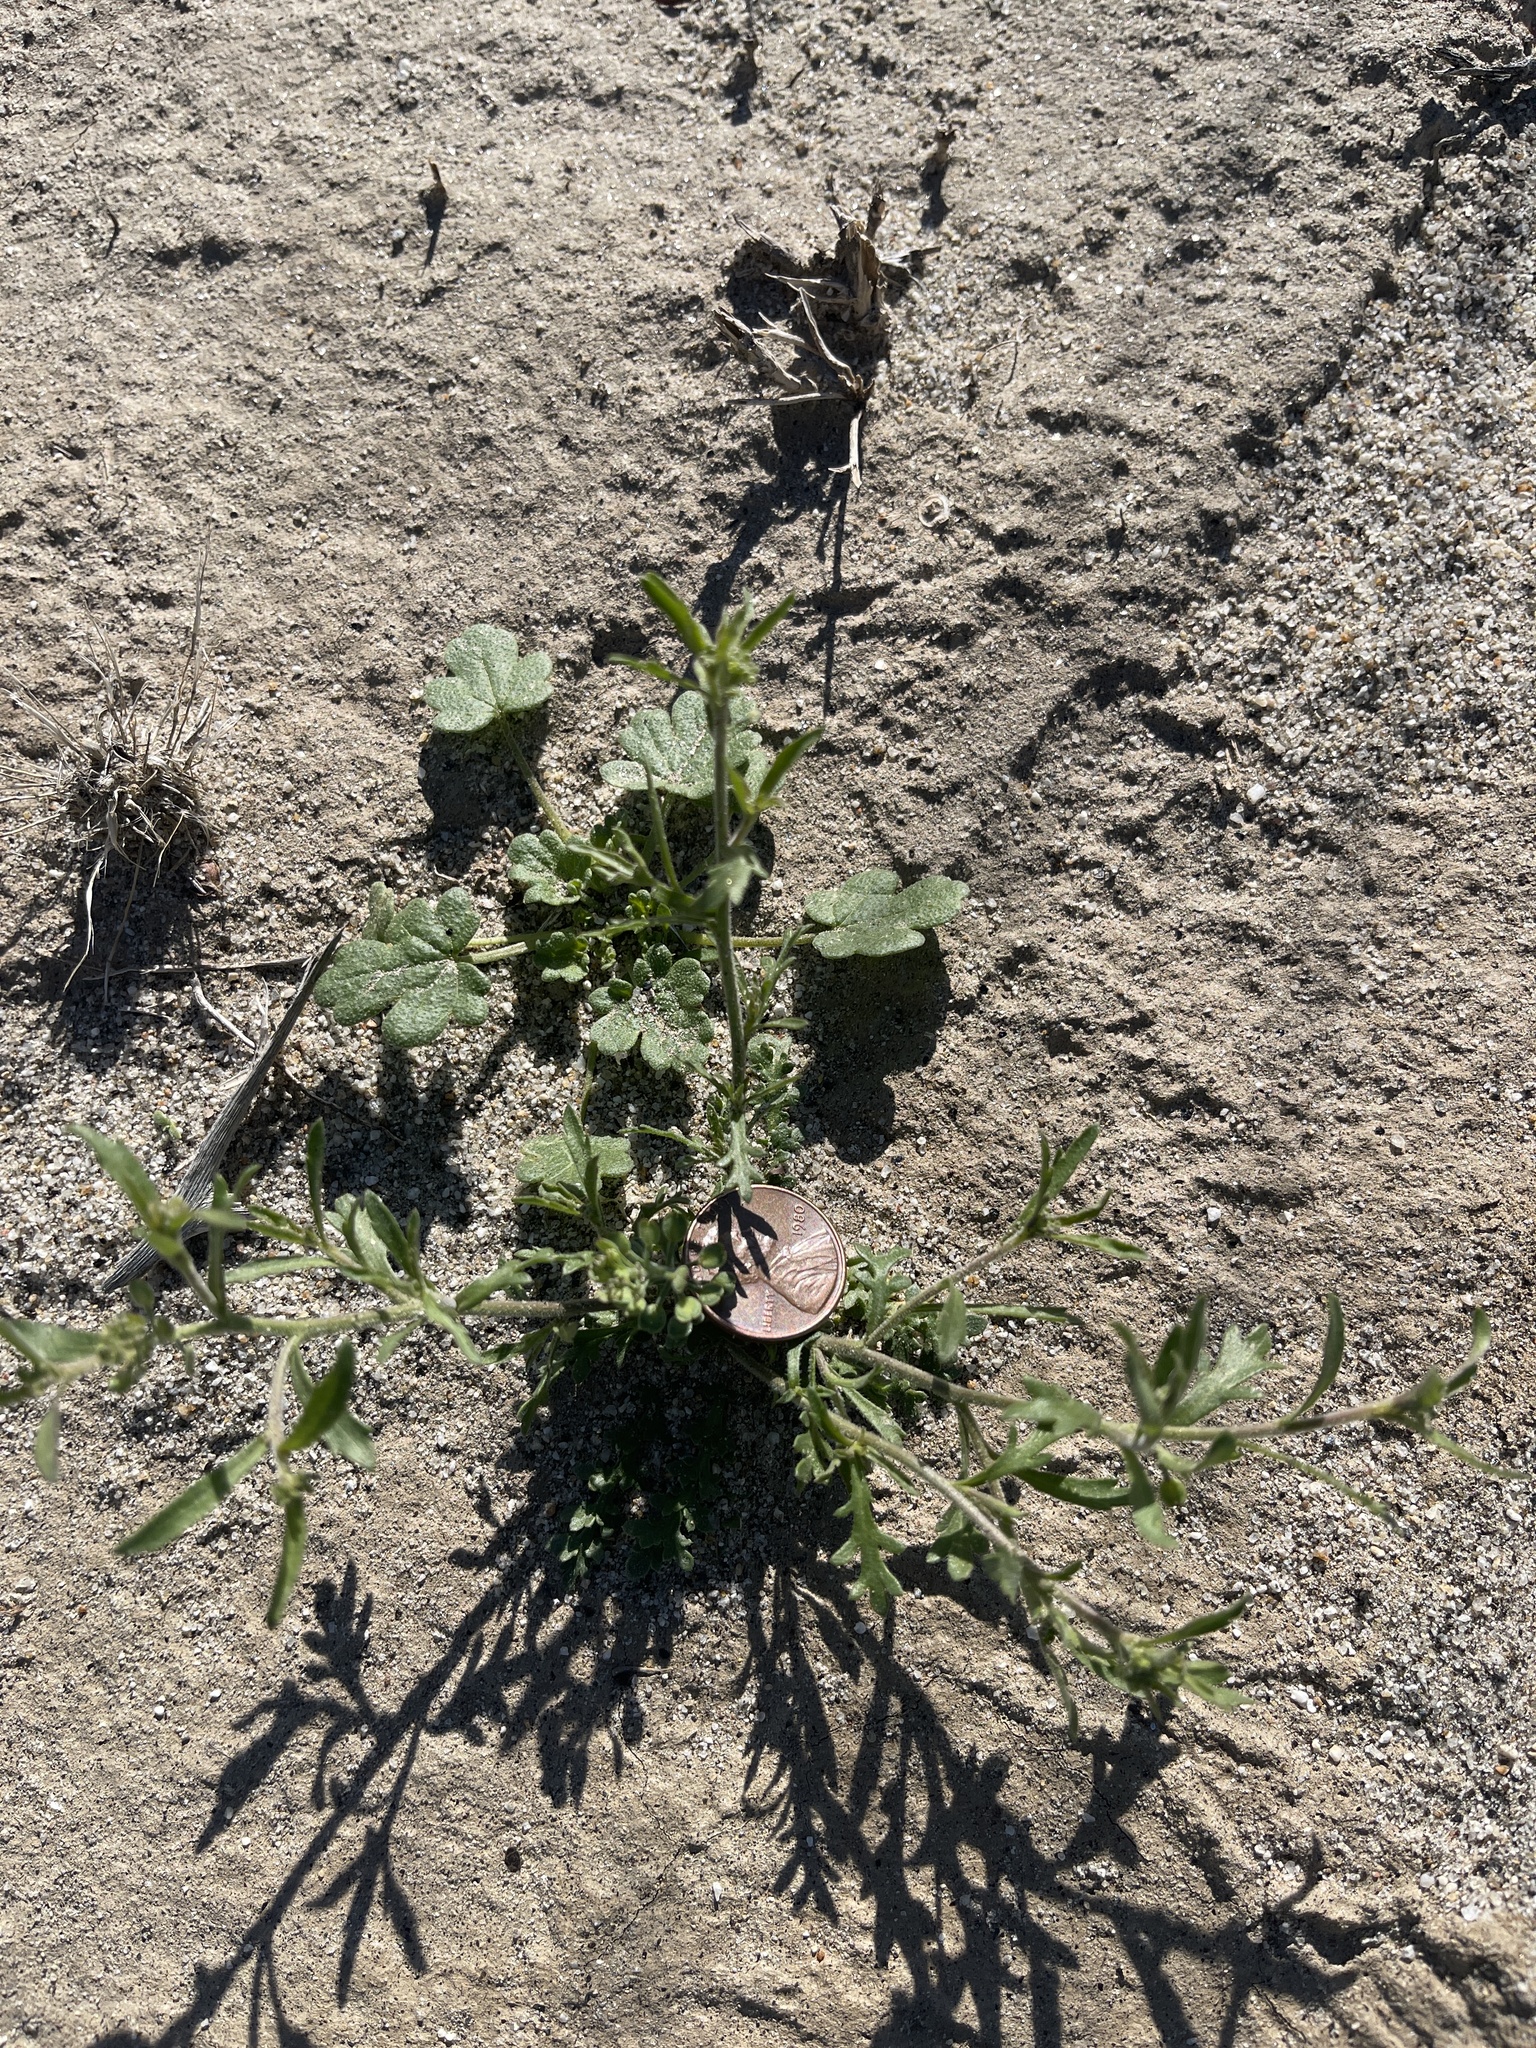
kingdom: Plantae
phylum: Tracheophyta
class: Magnoliopsida
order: Brassicales
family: Brassicaceae
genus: Lepidium
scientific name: Lepidium lasiocarpum
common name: Hairy-pod pepperwort
